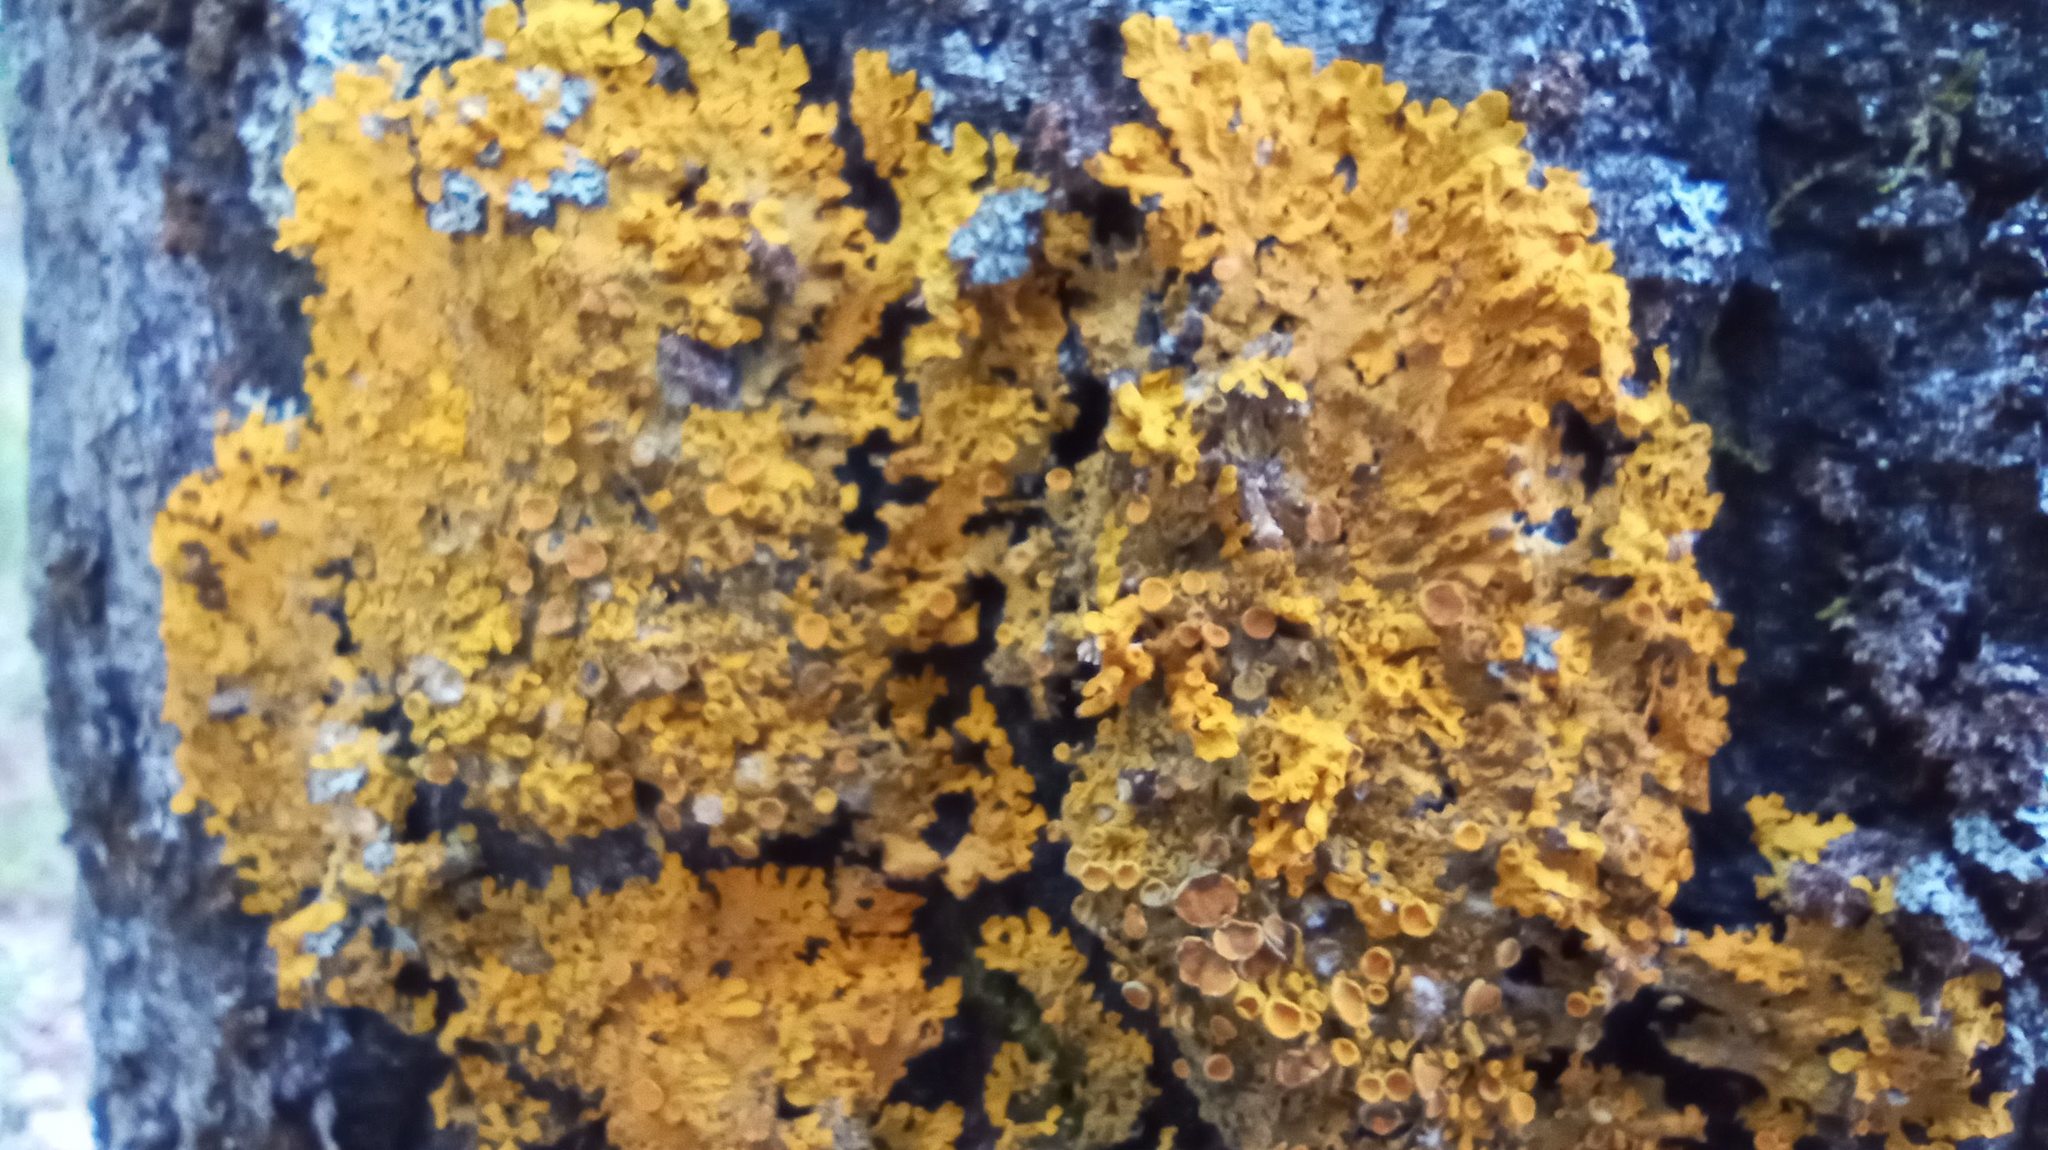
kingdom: Fungi
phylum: Ascomycota
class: Lecanoromycetes
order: Teloschistales
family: Teloschistaceae
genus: Xanthoria
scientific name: Xanthoria parietina
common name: Common orange lichen
